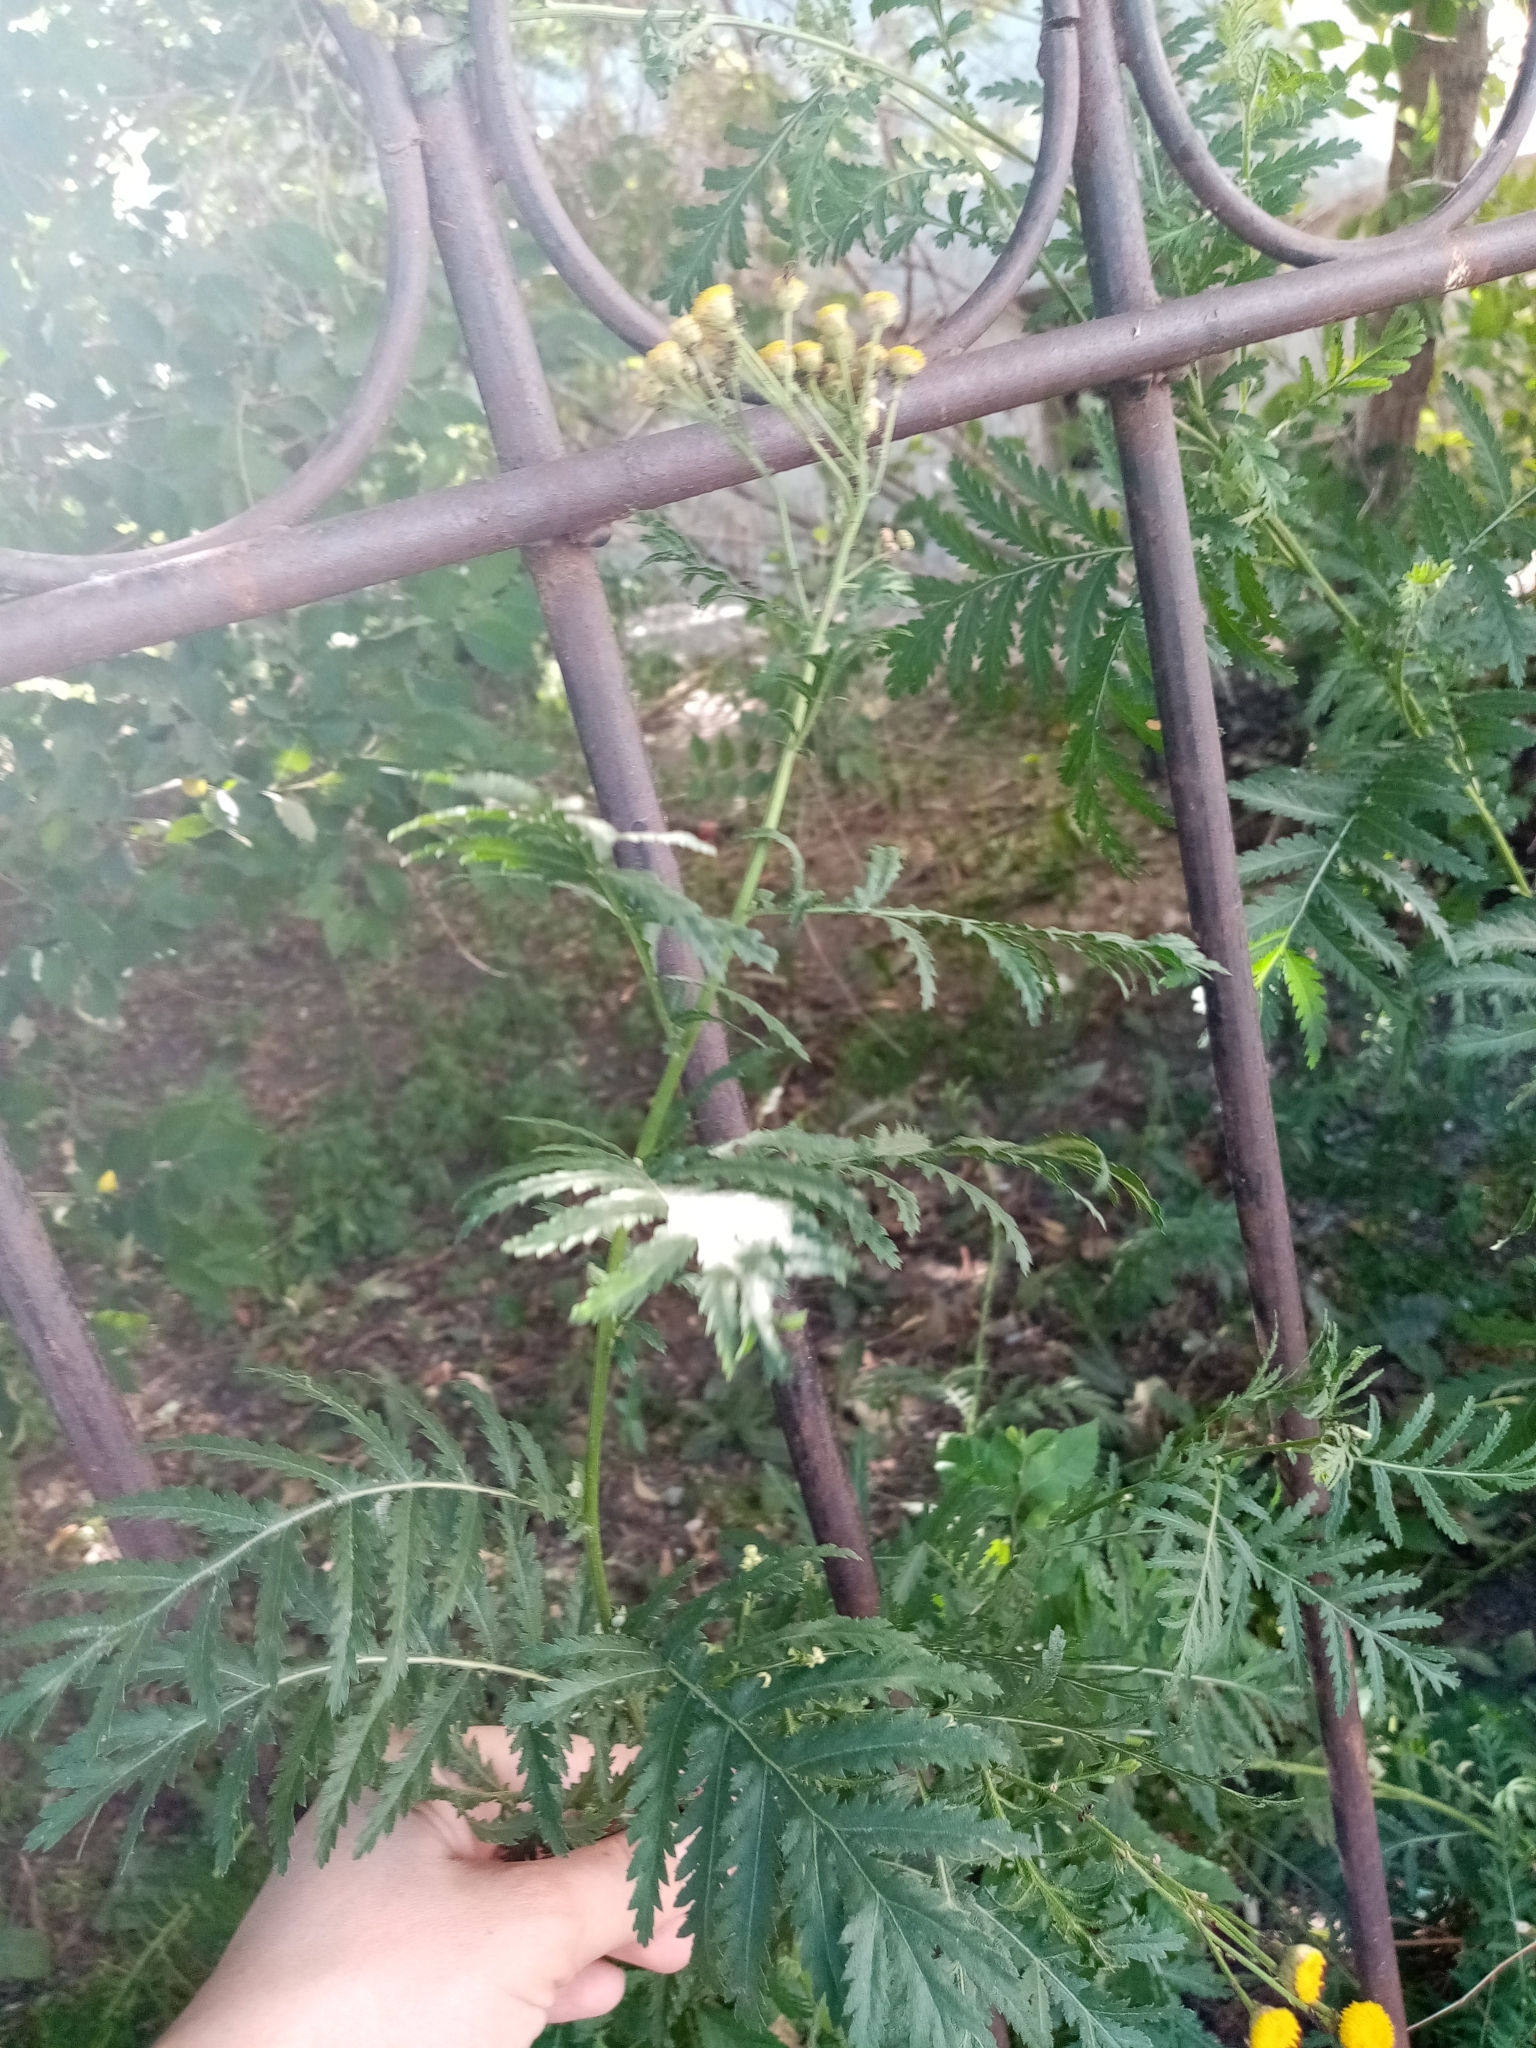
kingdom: Plantae
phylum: Tracheophyta
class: Magnoliopsida
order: Asterales
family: Asteraceae
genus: Tanacetum
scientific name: Tanacetum vulgare
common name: Common tansy
